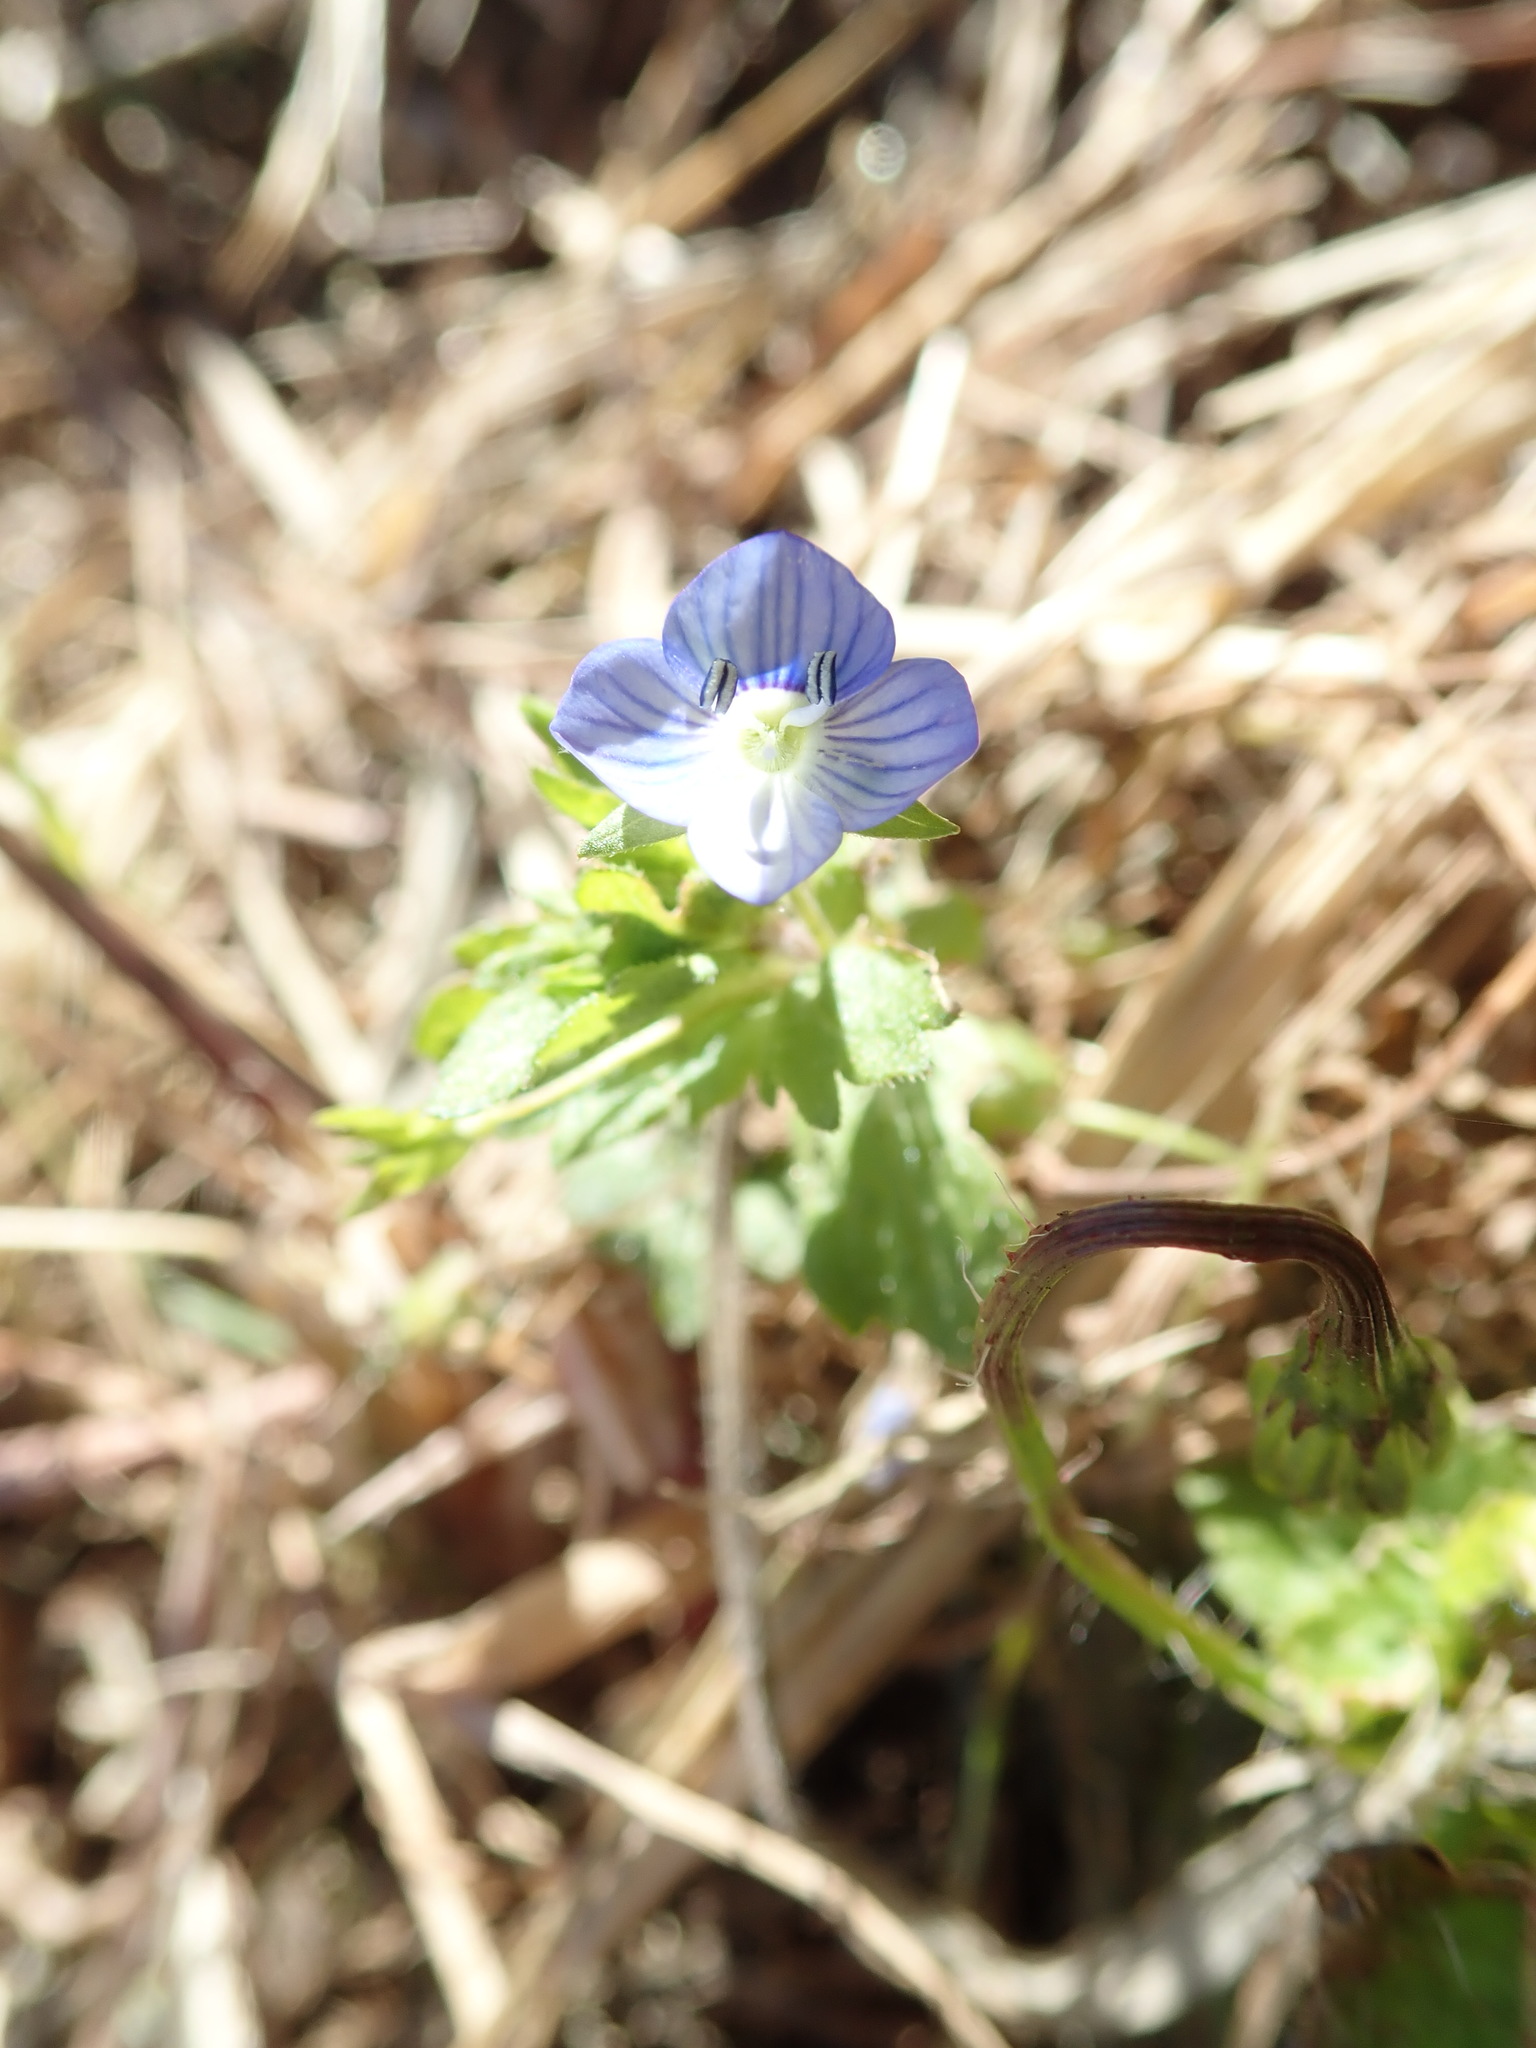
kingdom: Plantae
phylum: Tracheophyta
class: Magnoliopsida
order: Lamiales
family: Plantaginaceae
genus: Veronica
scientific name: Veronica persica
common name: Common field-speedwell
